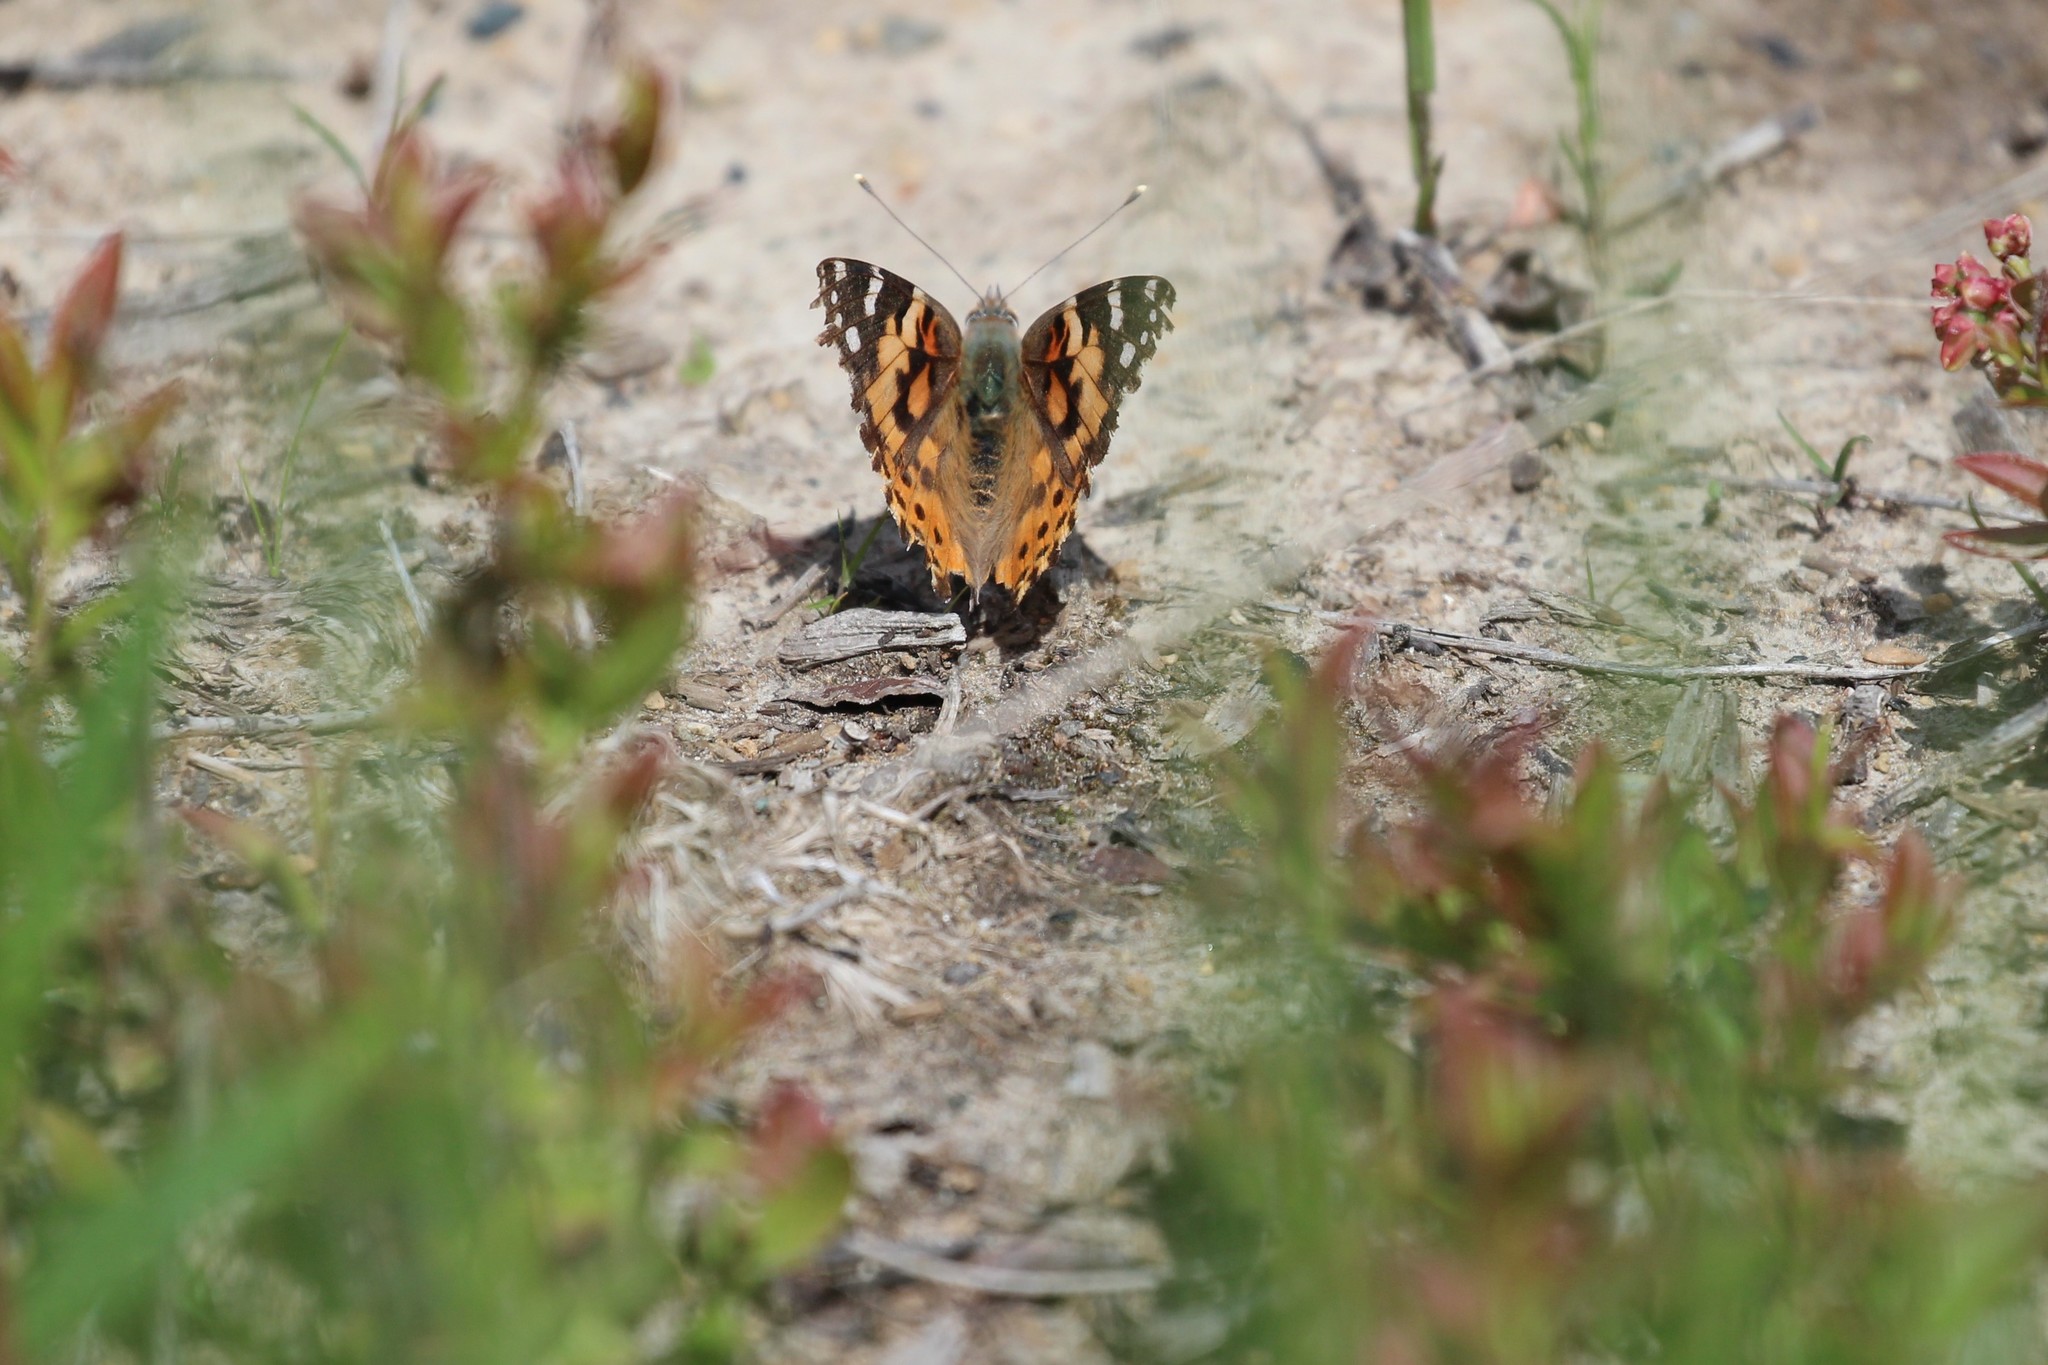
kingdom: Animalia
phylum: Arthropoda
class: Insecta
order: Lepidoptera
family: Nymphalidae
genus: Vanessa
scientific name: Vanessa cardui
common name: Painted lady
